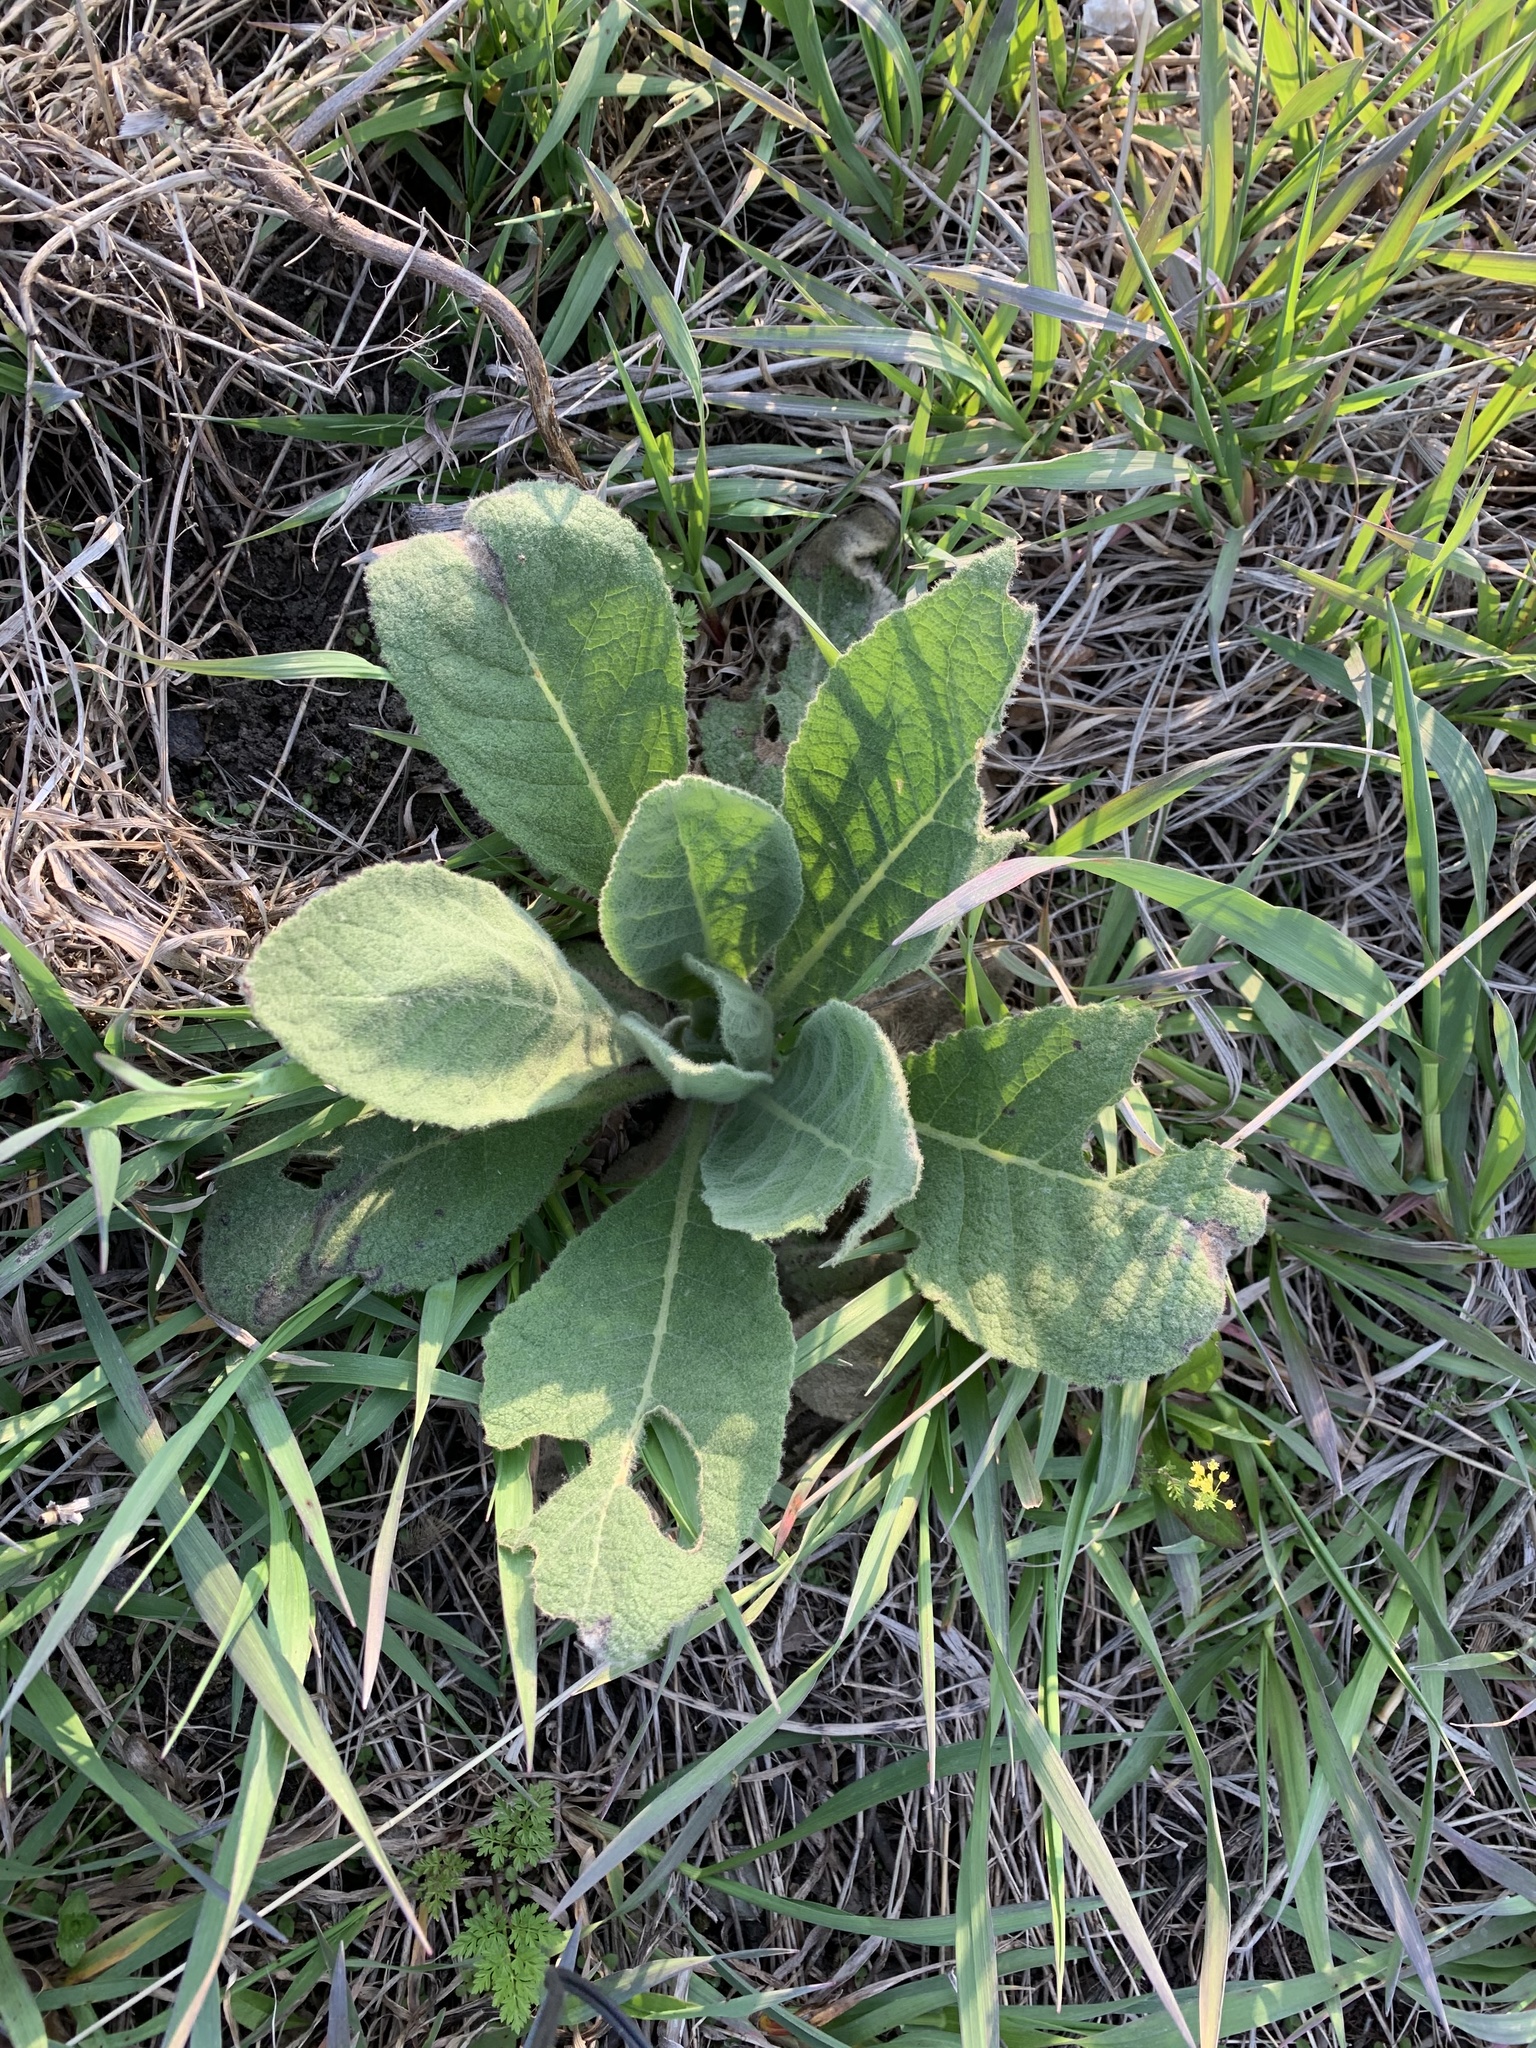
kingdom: Plantae
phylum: Tracheophyta
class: Magnoliopsida
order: Lamiales
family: Scrophulariaceae
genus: Verbascum
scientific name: Verbascum thapsus
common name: Common mullein
